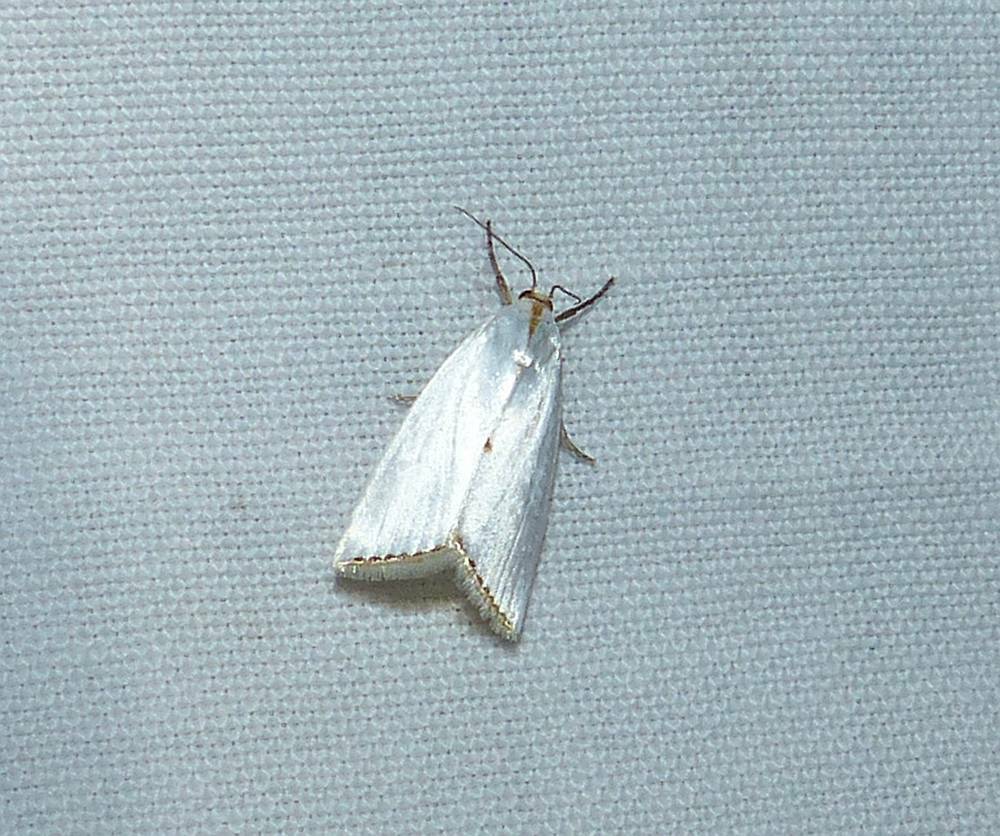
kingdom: Animalia
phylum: Arthropoda
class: Insecta
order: Lepidoptera
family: Crambidae
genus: Argyria
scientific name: Argyria nivalis
